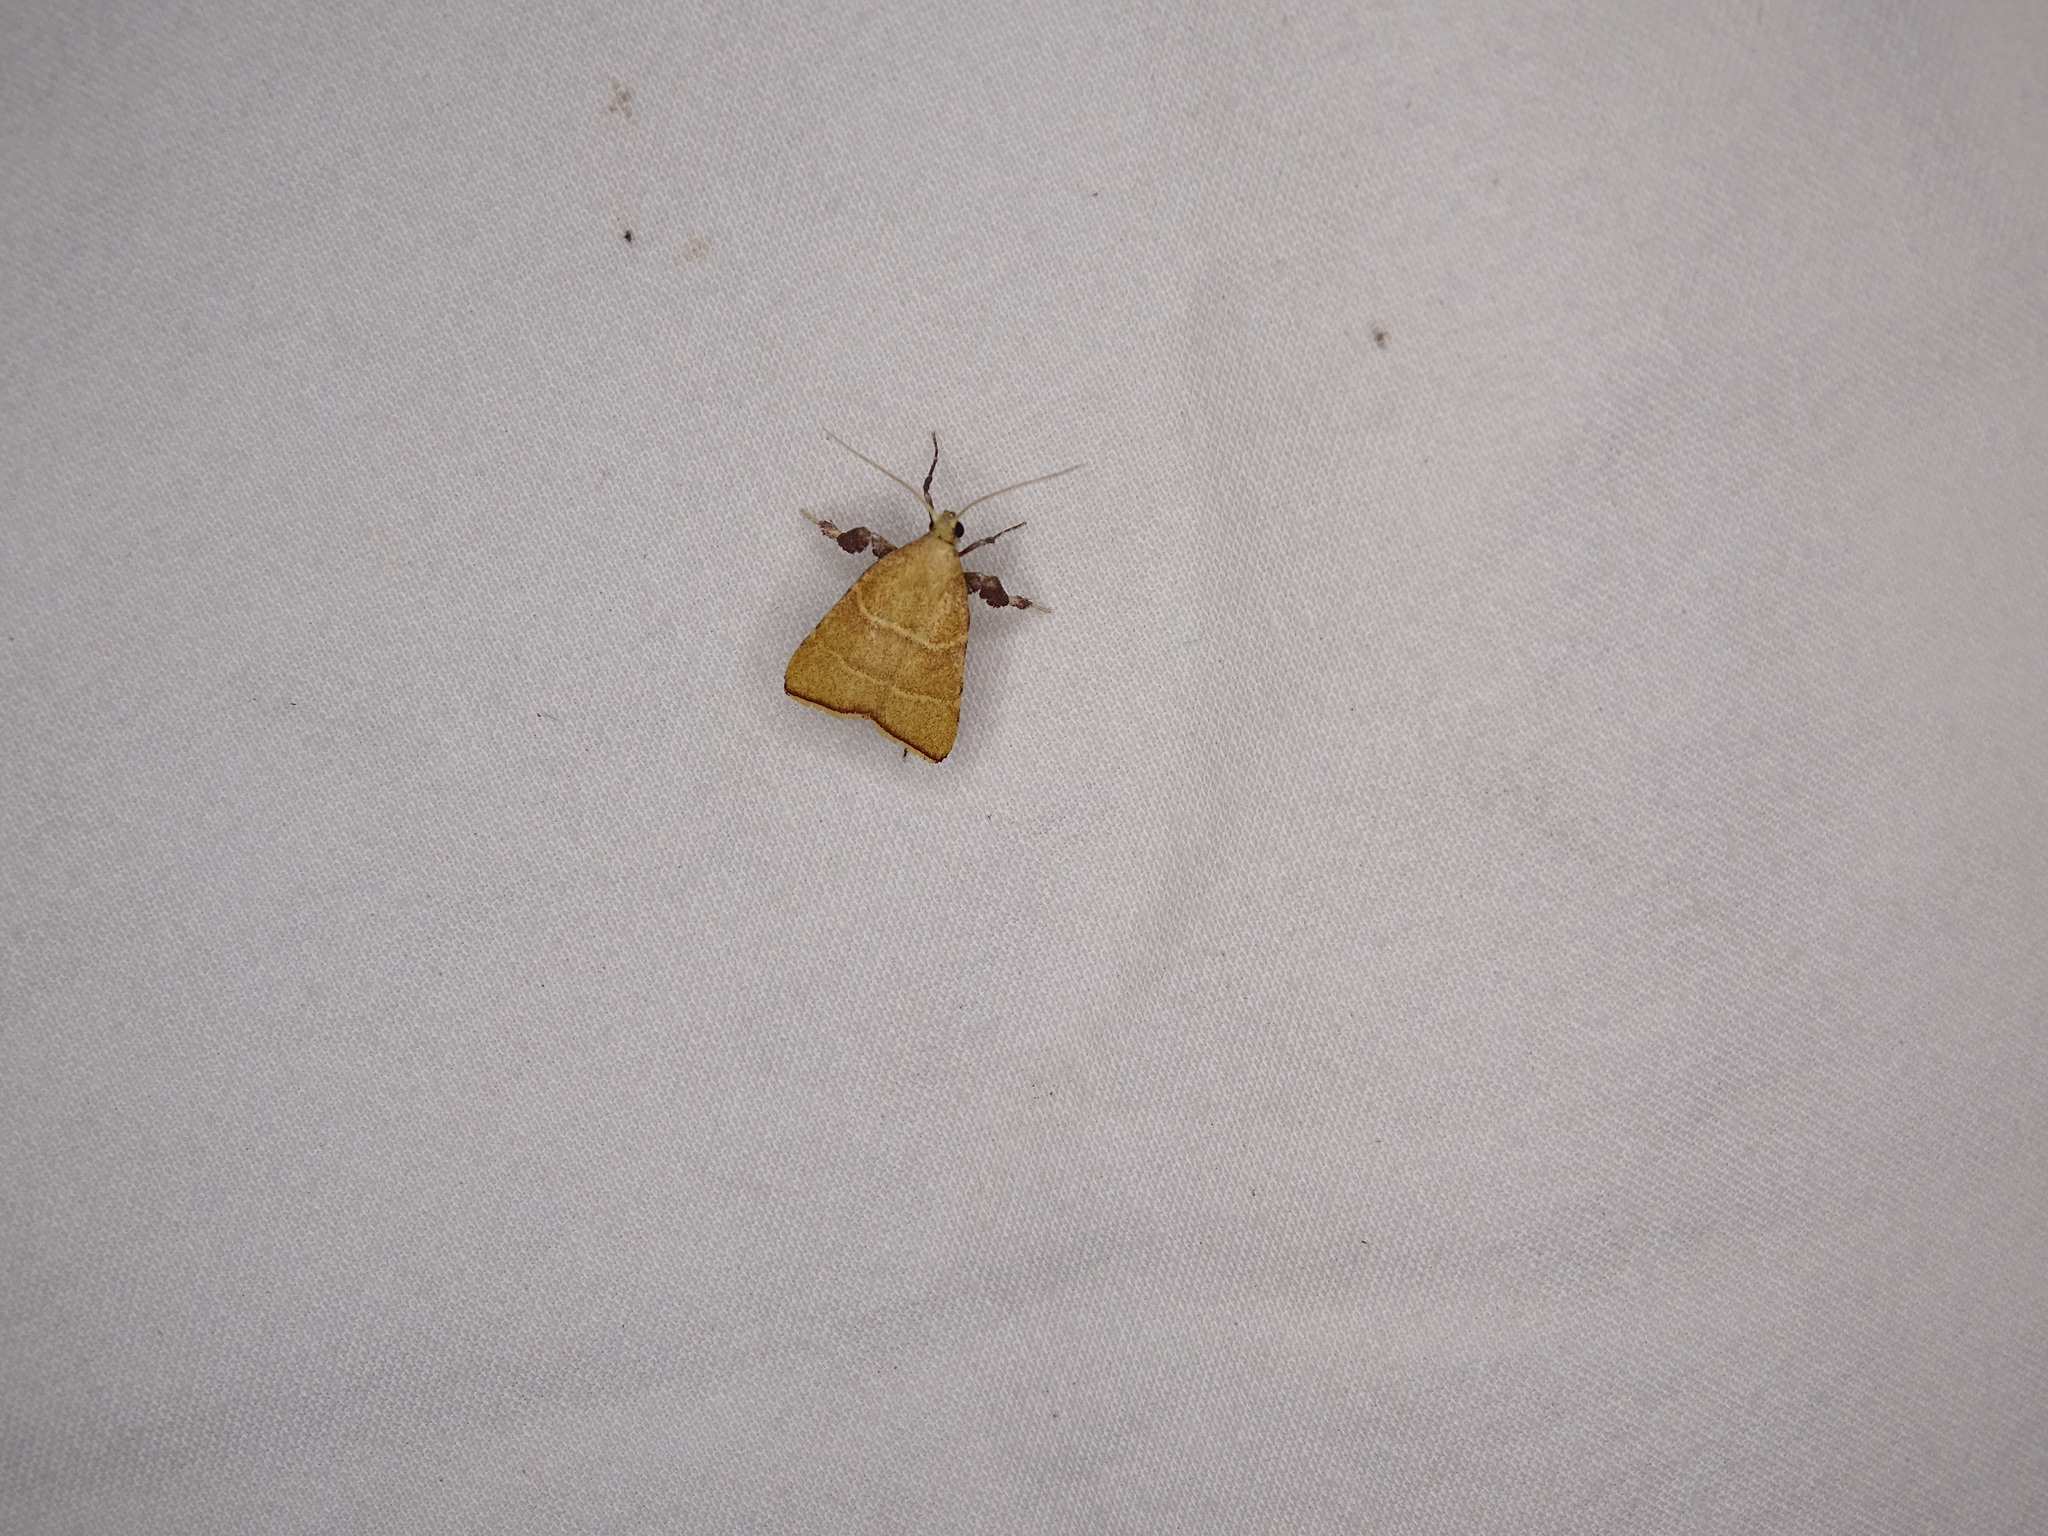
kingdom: Animalia
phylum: Arthropoda
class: Insecta
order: Lepidoptera
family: Pyralidae
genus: Parachma
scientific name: Parachma ochracealis
